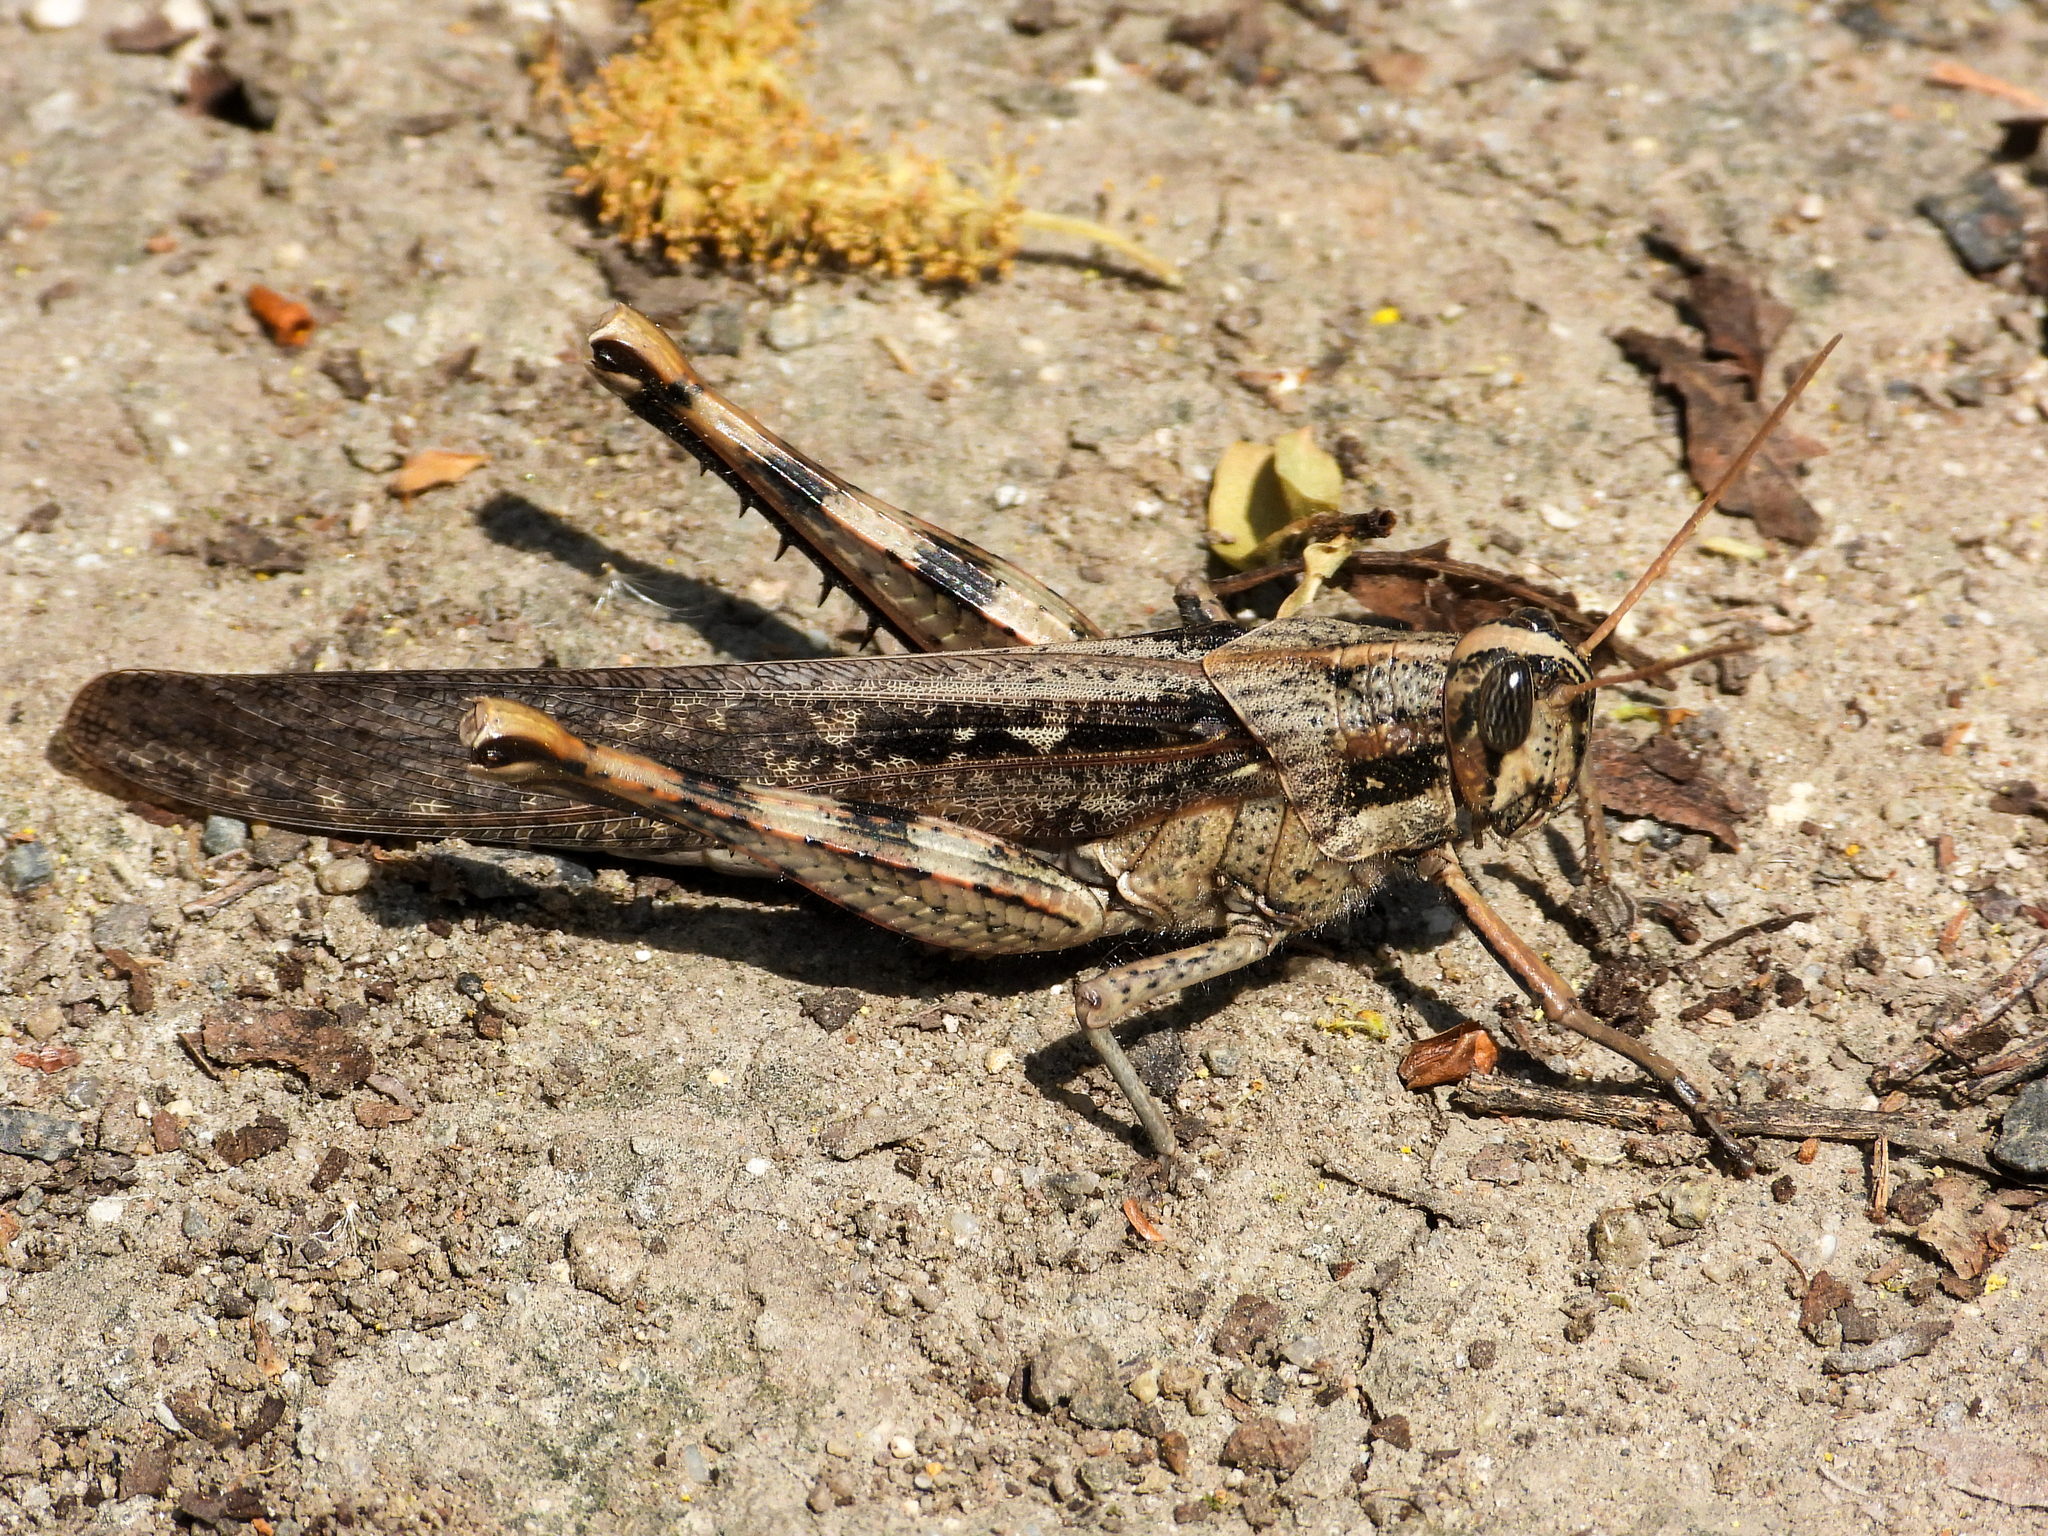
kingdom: Animalia
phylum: Arthropoda
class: Insecta
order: Orthoptera
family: Acrididae
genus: Schistocerca
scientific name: Schistocerca nitens
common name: Vagrant grasshopper
